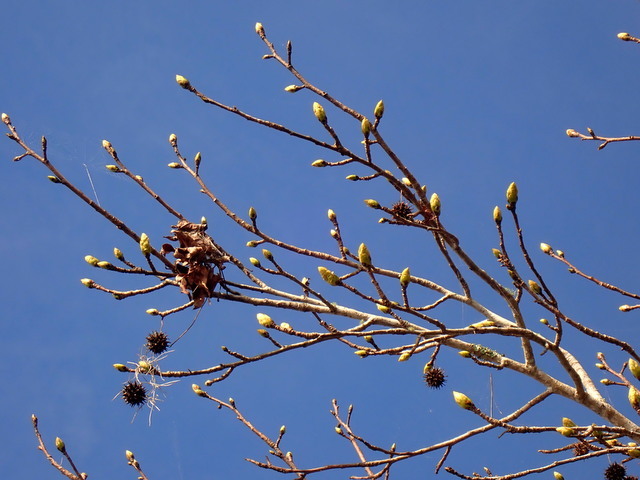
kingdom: Plantae
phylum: Tracheophyta
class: Magnoliopsida
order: Saxifragales
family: Altingiaceae
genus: Liquidambar
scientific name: Liquidambar styraciflua
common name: Sweet gum
